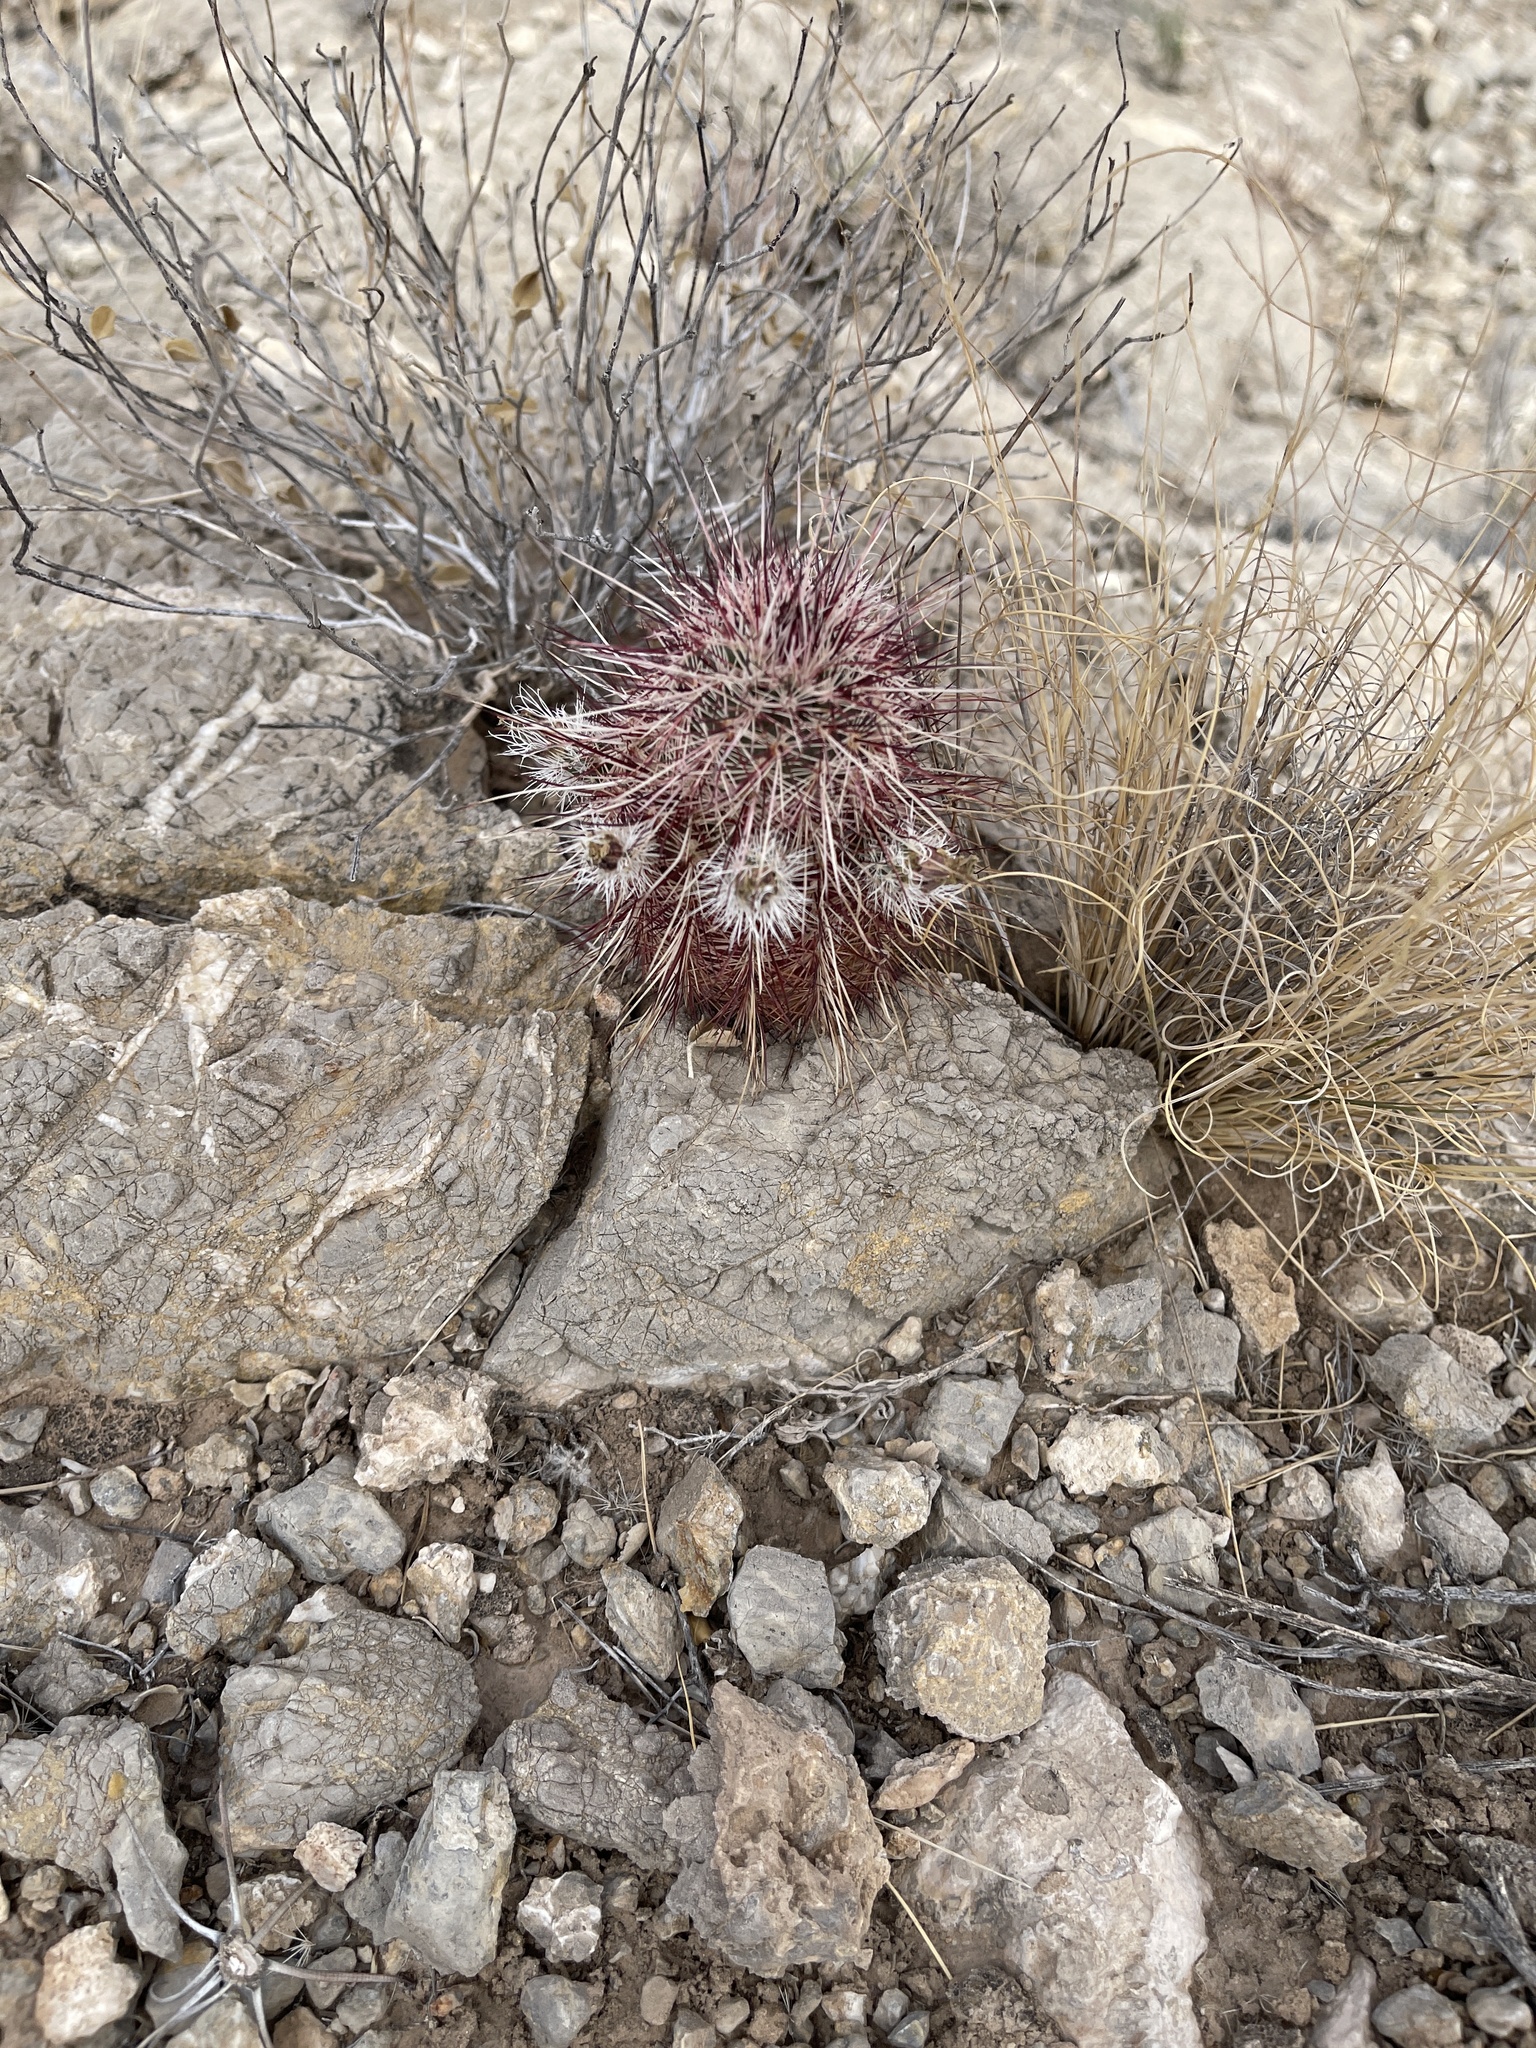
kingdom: Plantae
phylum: Tracheophyta
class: Magnoliopsida
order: Caryophyllales
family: Cactaceae
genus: Echinocereus
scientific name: Echinocereus viridiflorus
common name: Nylon hedgehog cactus
